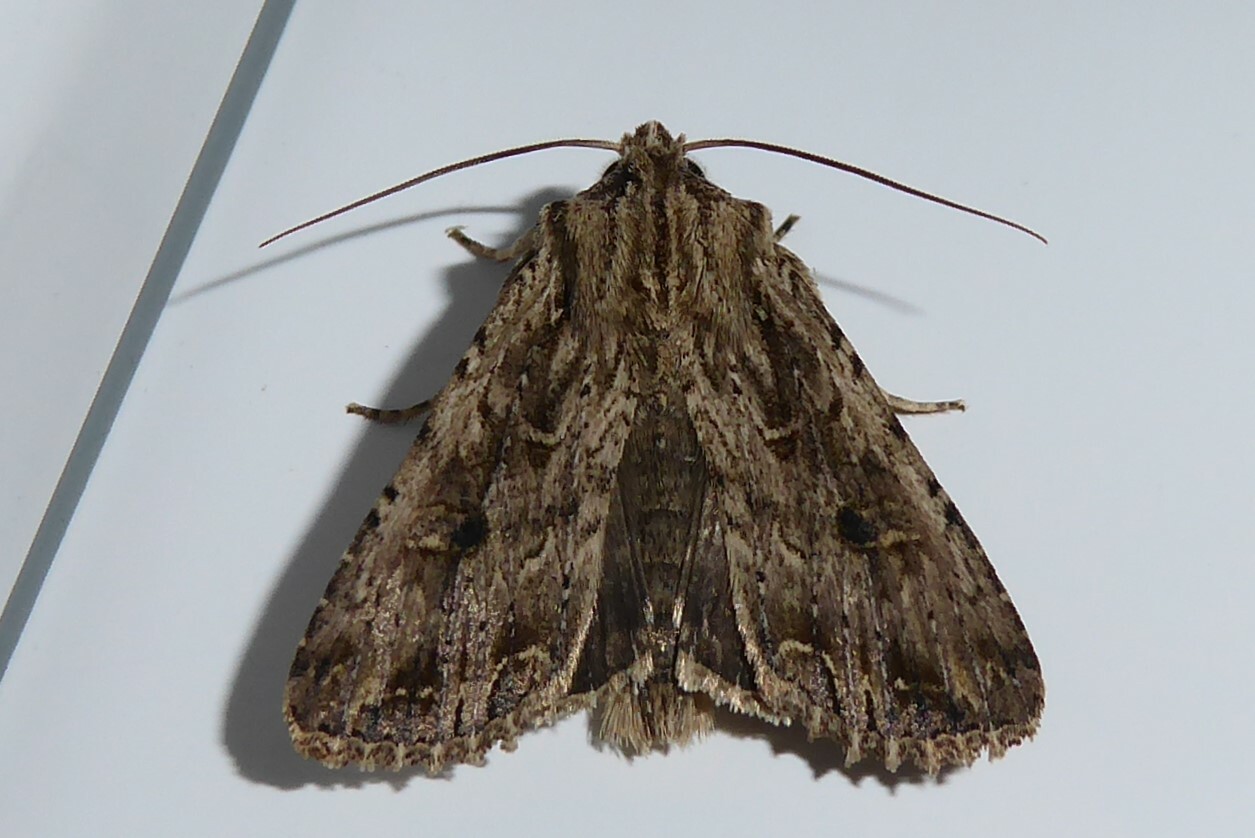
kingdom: Animalia
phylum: Arthropoda
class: Insecta
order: Lepidoptera
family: Noctuidae
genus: Ichneutica
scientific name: Ichneutica lignana
